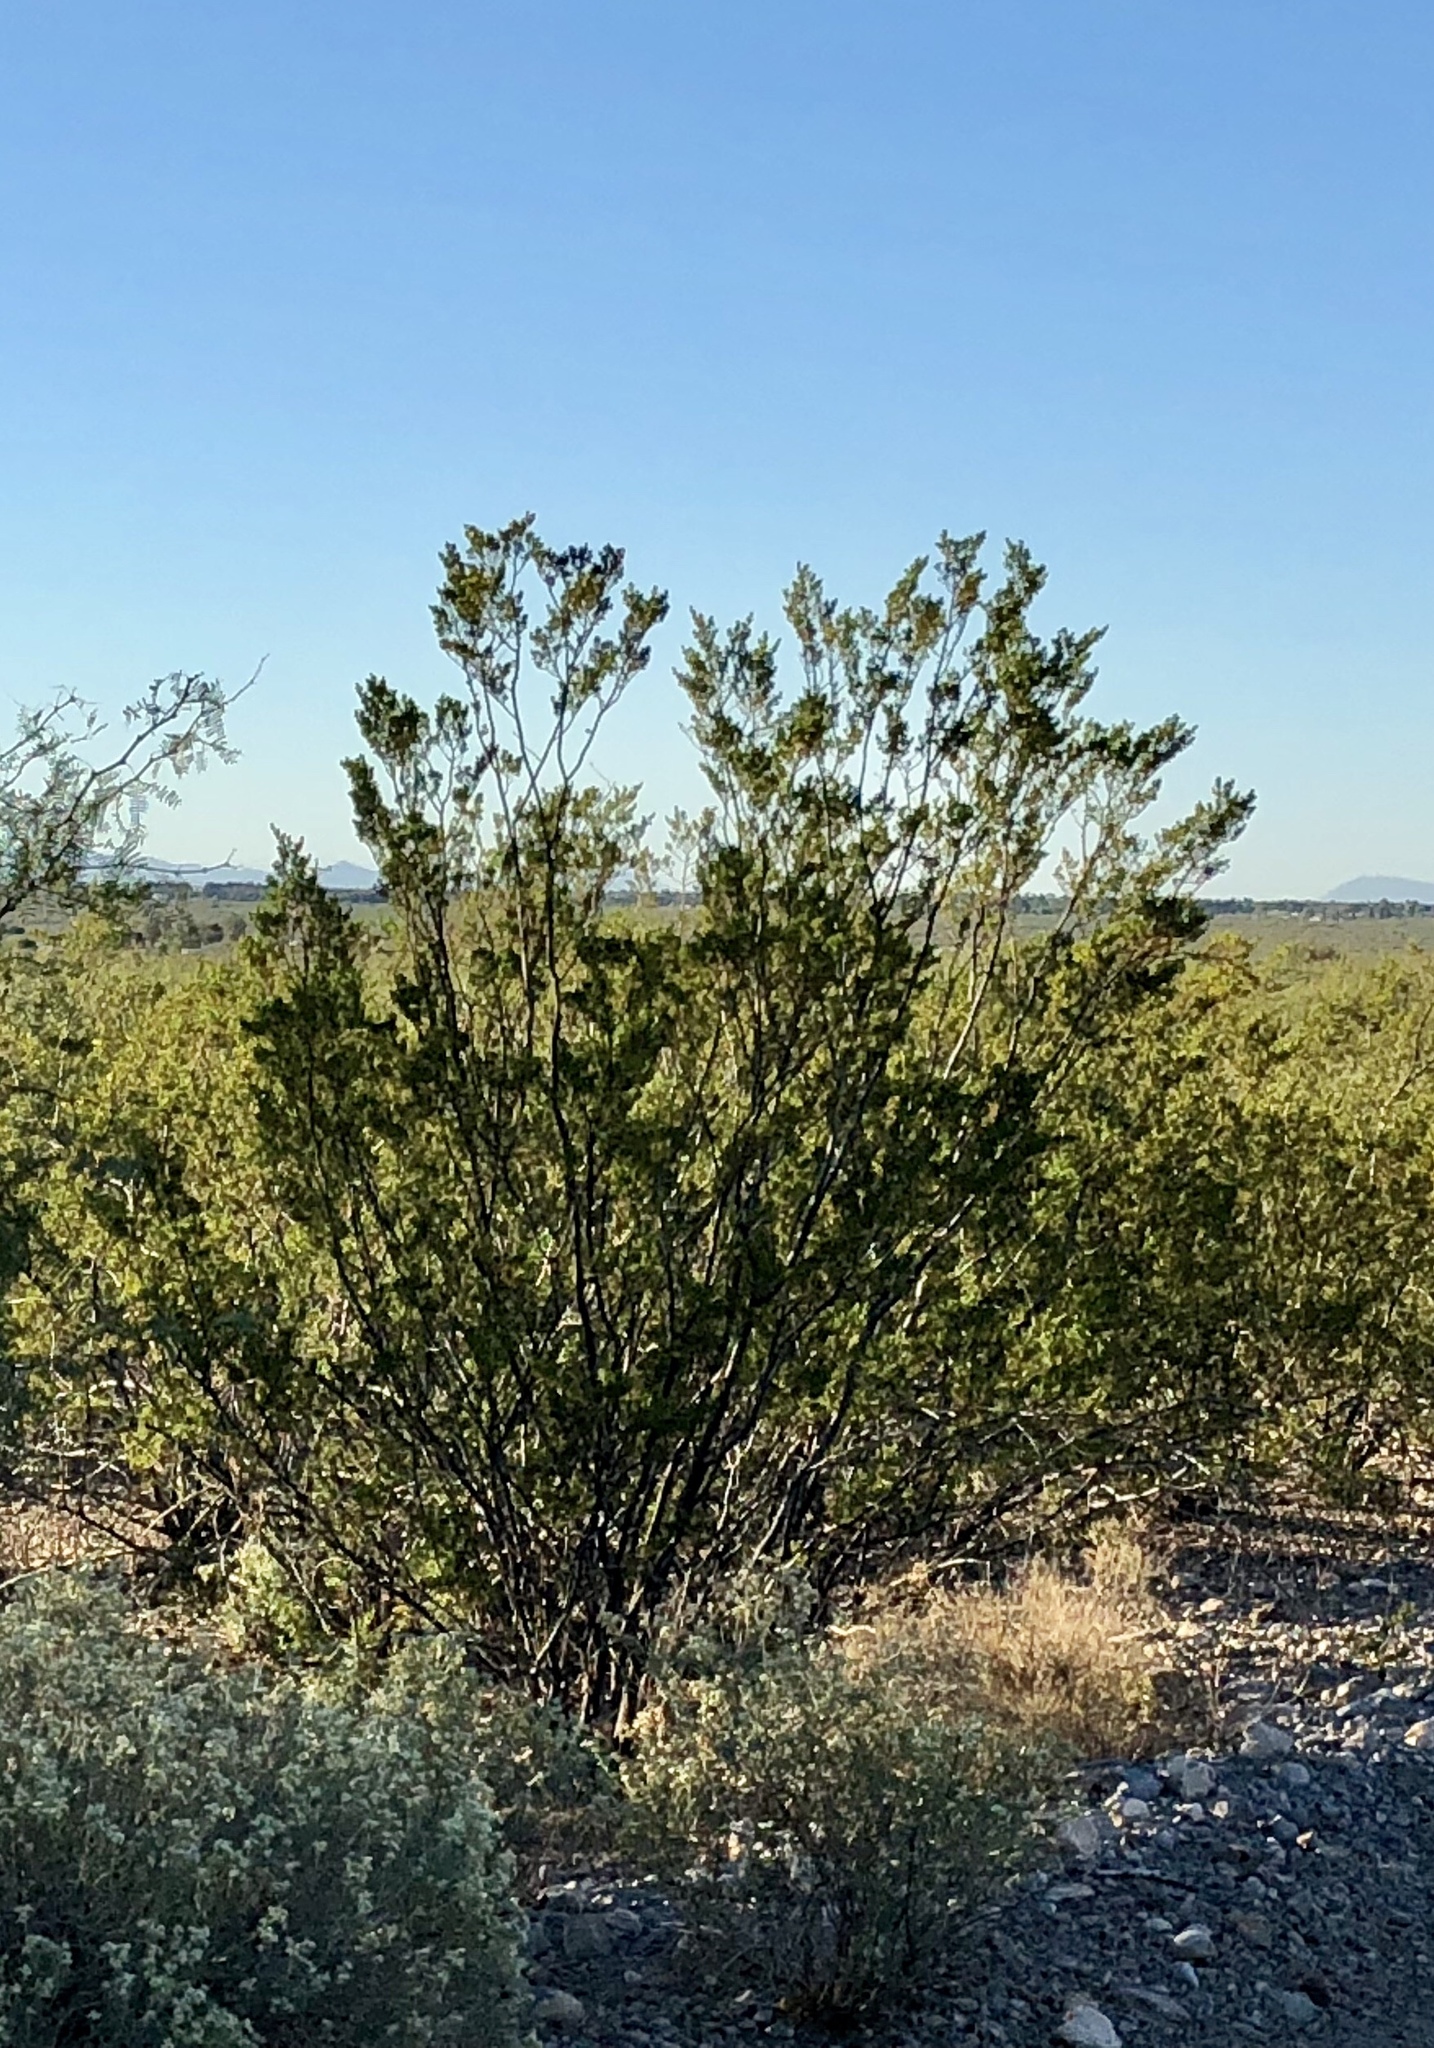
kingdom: Plantae
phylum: Tracheophyta
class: Magnoliopsida
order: Zygophyllales
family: Zygophyllaceae
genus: Larrea
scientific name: Larrea tridentata
